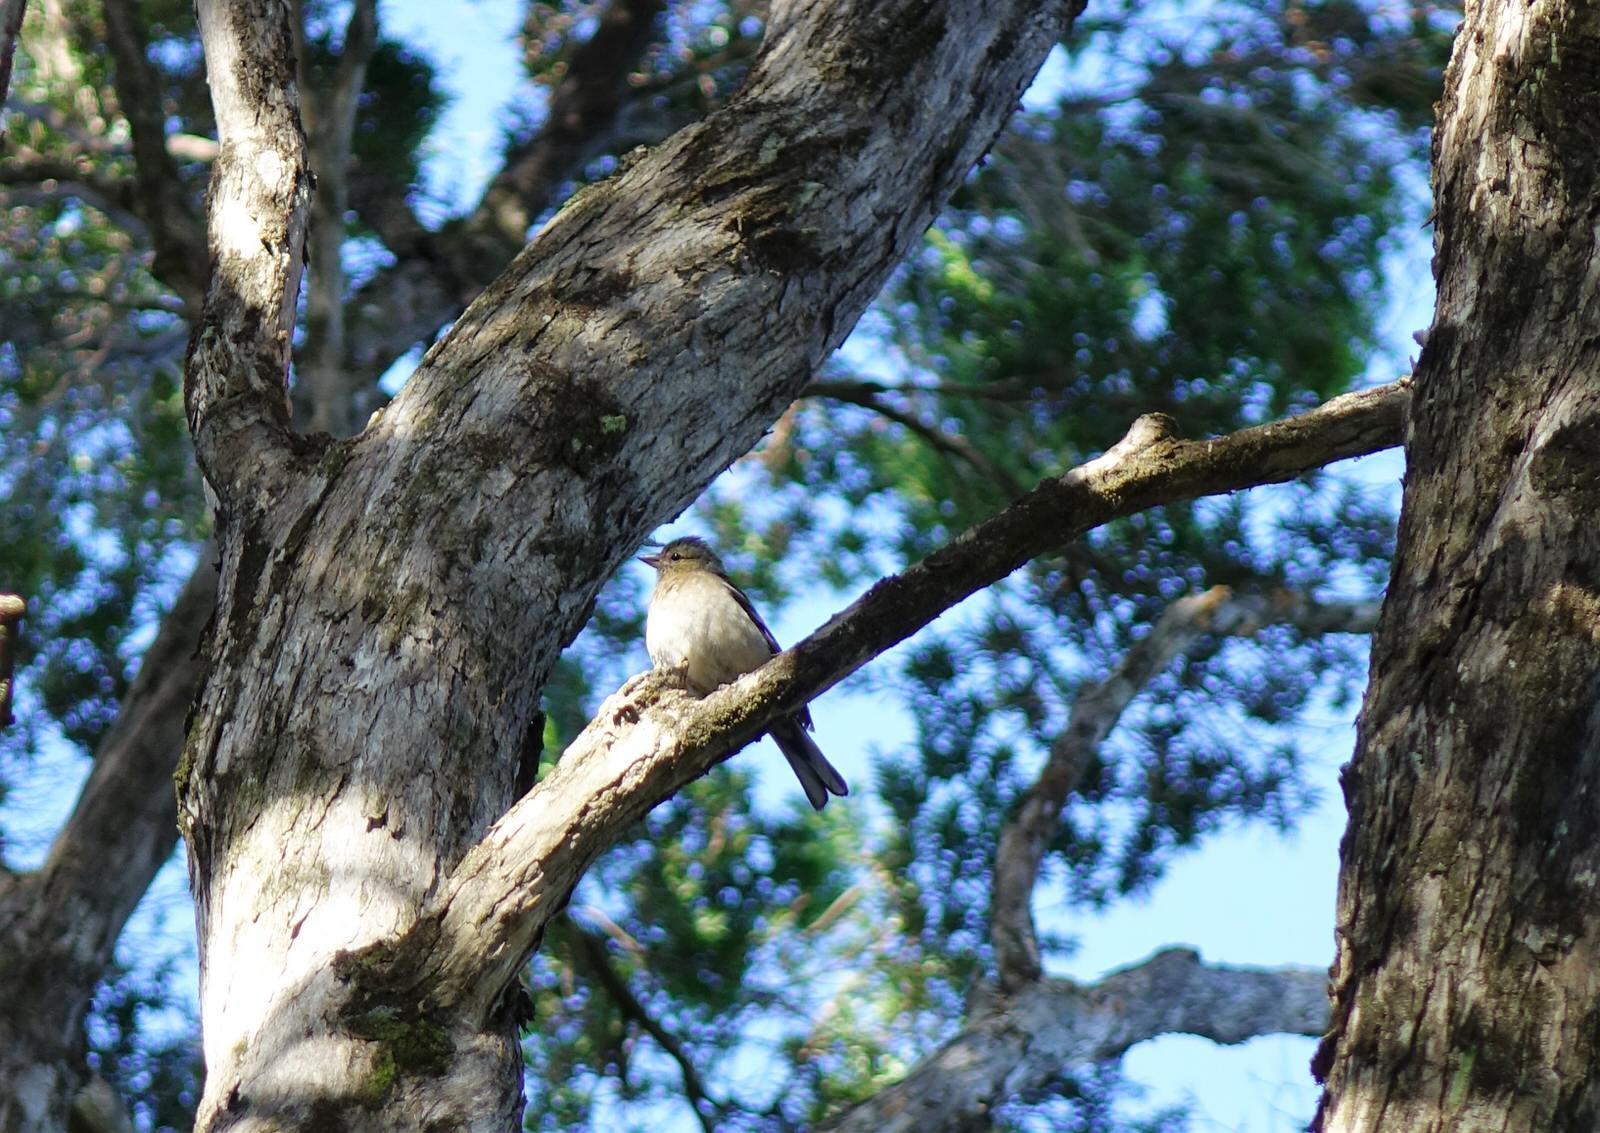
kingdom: Animalia
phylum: Chordata
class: Aves
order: Passeriformes
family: Fringillidae
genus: Fringilla
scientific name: Fringilla coelebs
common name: Common chaffinch
